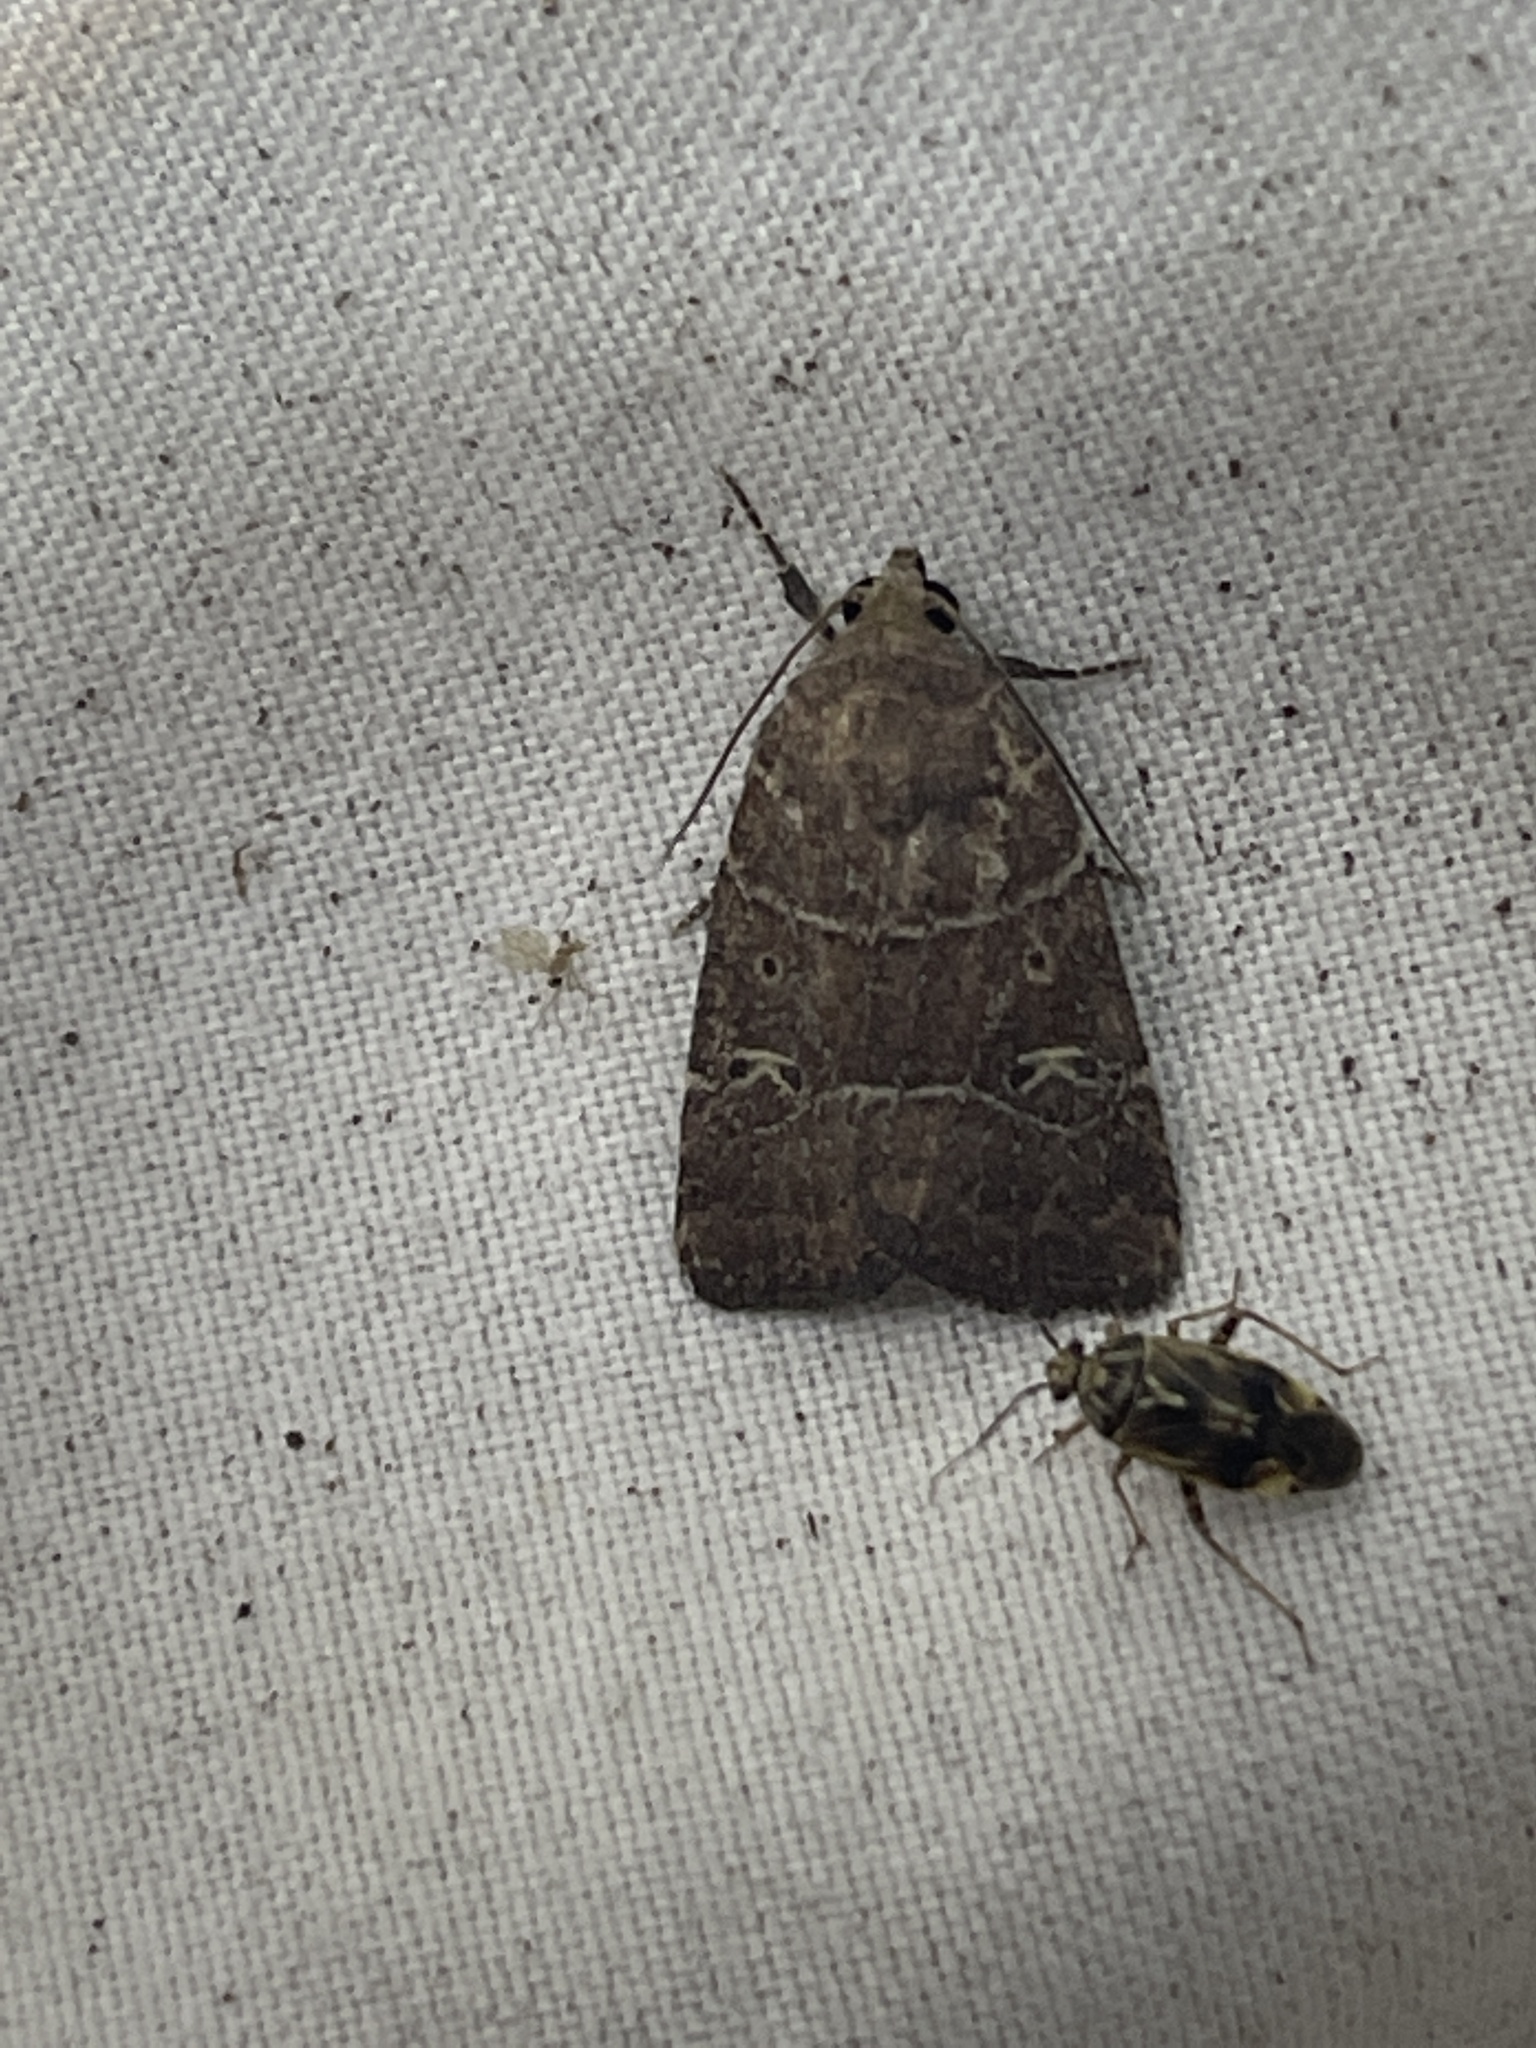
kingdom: Animalia
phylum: Arthropoda
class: Insecta
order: Lepidoptera
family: Noctuidae
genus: Elaphria
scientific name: Elaphria grata
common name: Grateful midget moth
